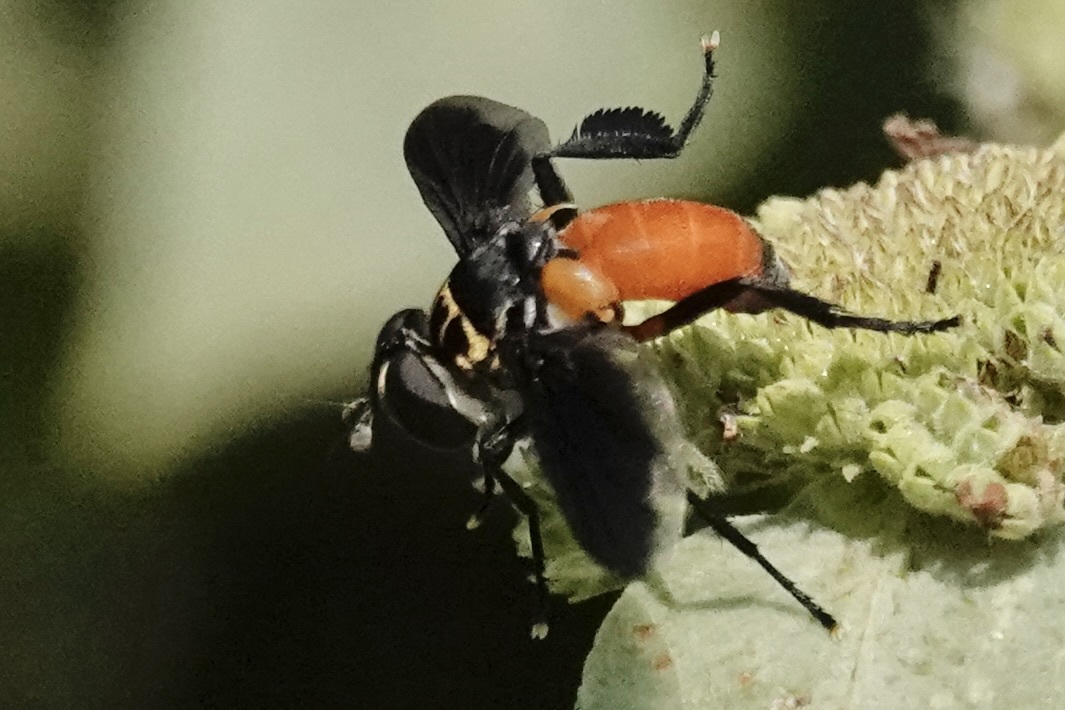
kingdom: Animalia
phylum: Arthropoda
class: Insecta
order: Diptera
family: Tachinidae
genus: Trichopoda
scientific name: Trichopoda pennipes
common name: Tachinid fly
